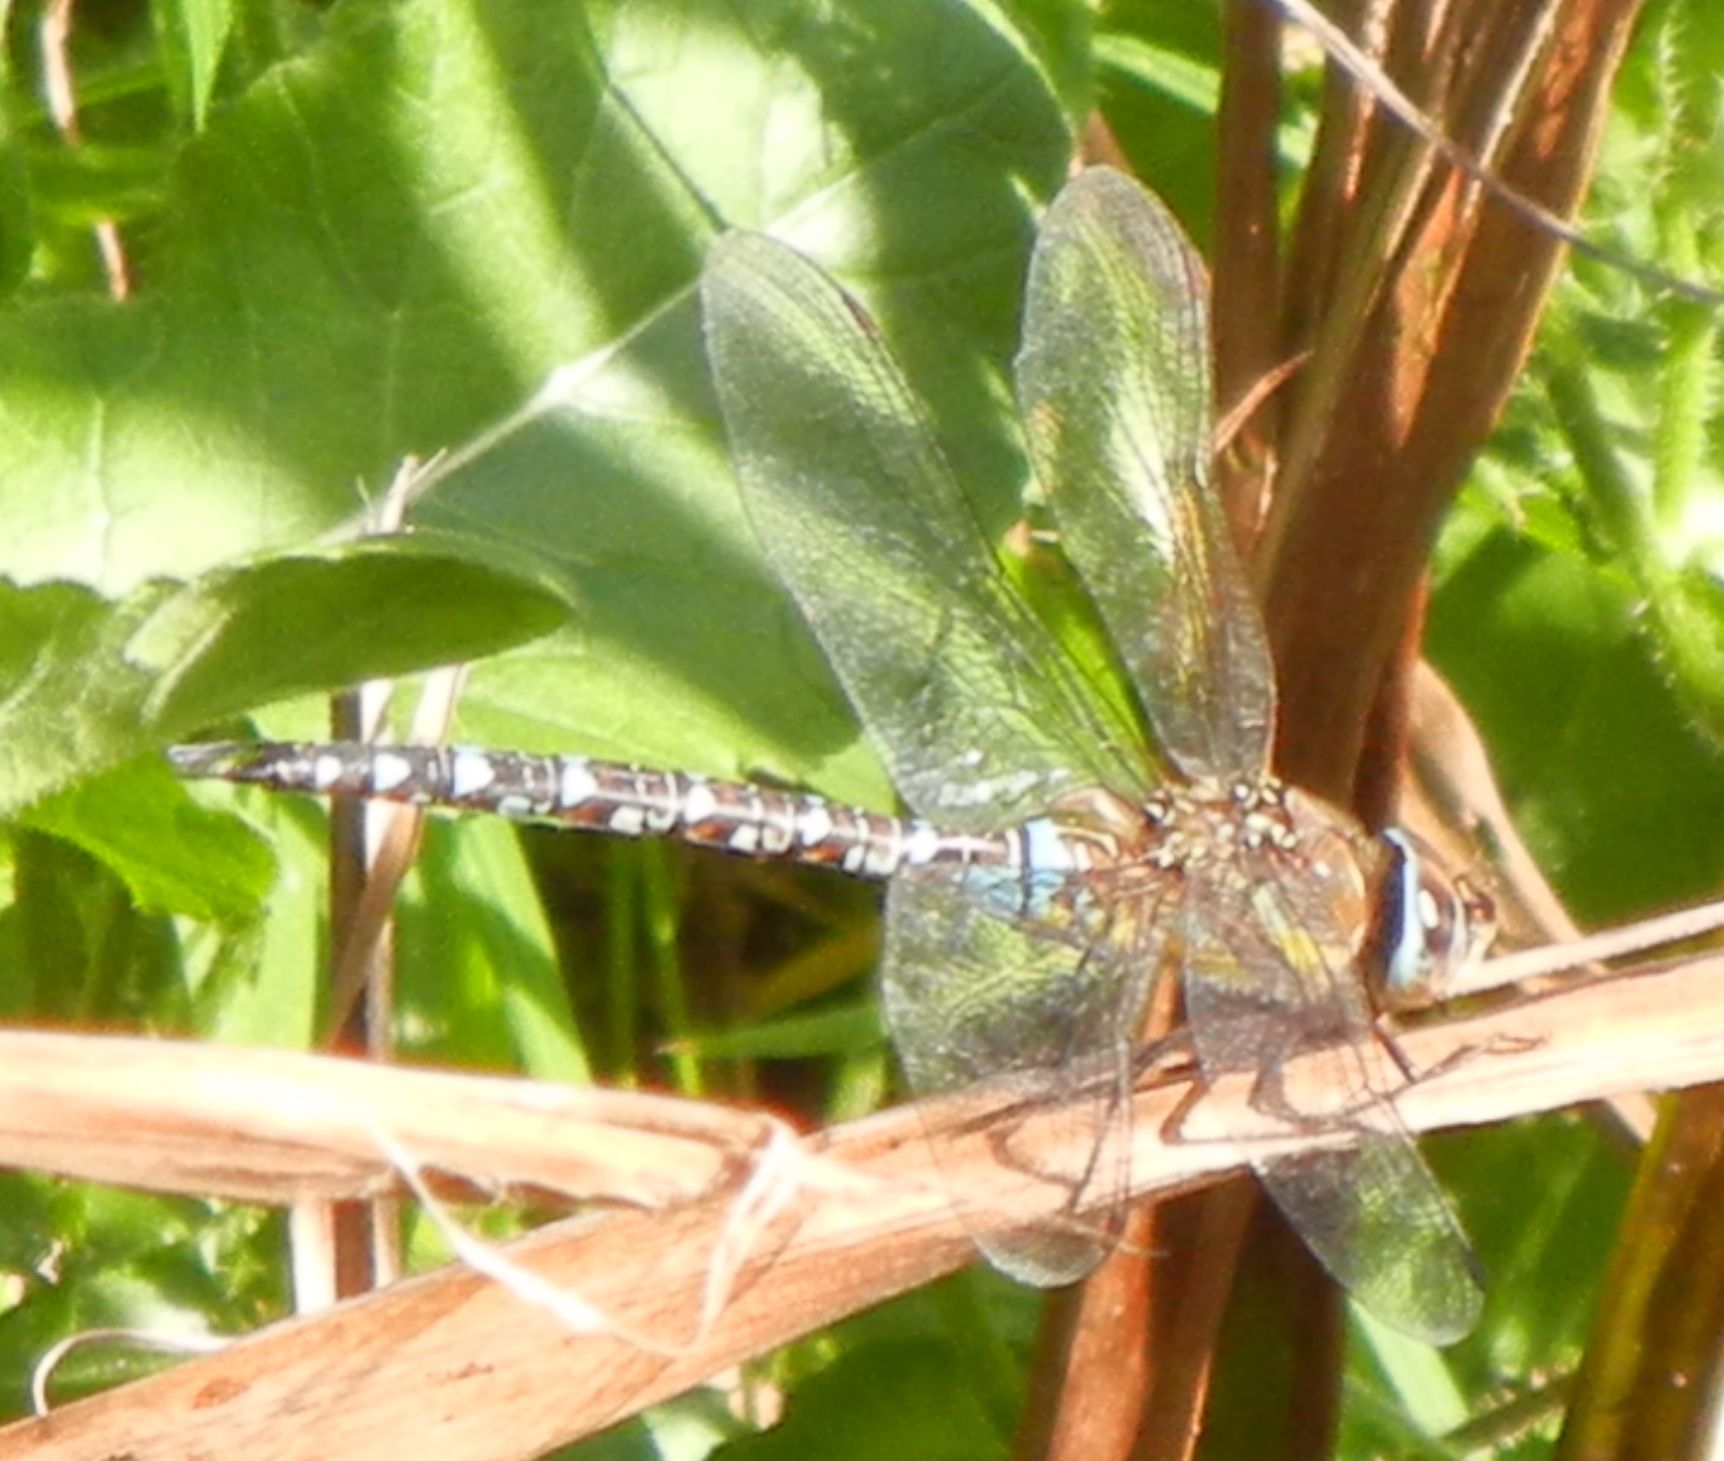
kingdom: Animalia
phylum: Arthropoda
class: Insecta
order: Odonata
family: Aeshnidae
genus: Aeshna
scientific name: Aeshna mixta
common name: Migrant hawker
